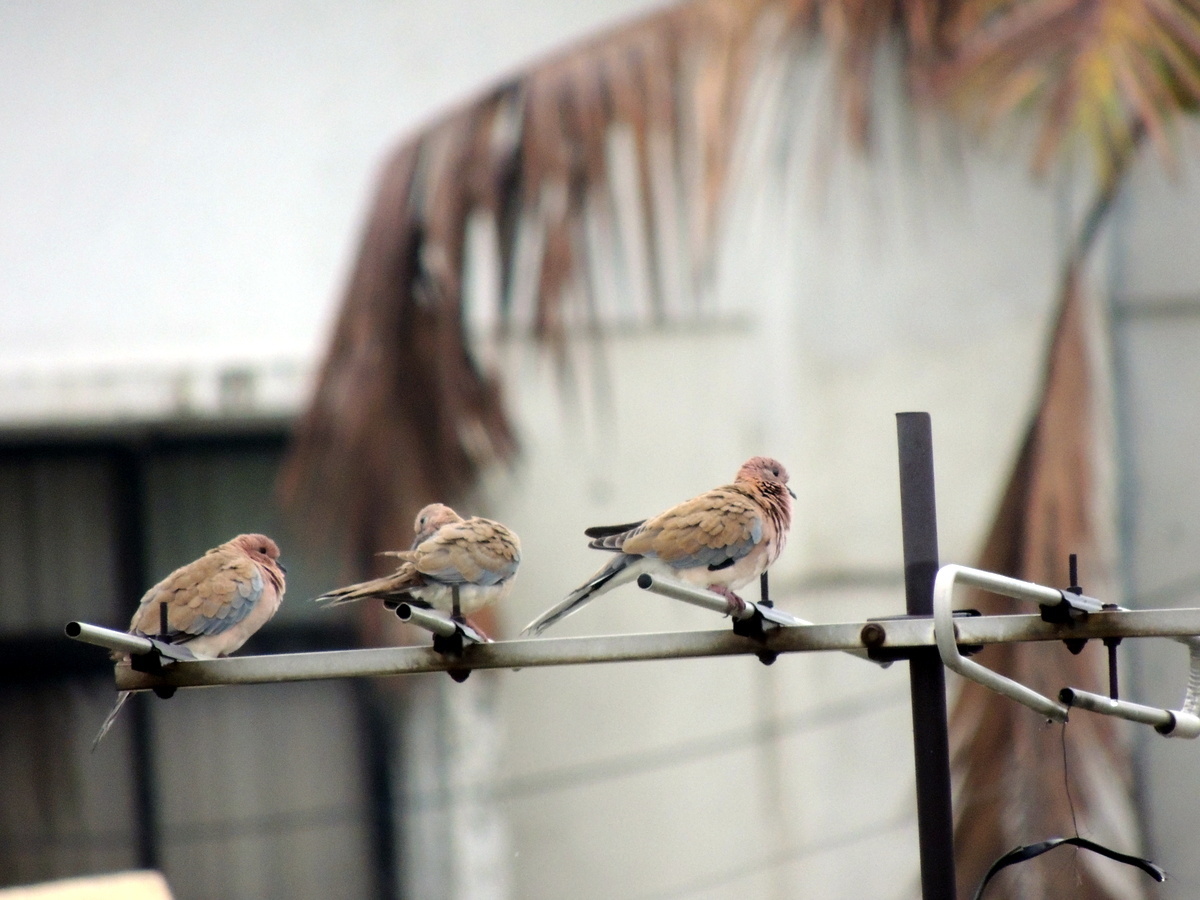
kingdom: Animalia
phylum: Chordata
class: Aves
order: Columbiformes
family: Columbidae
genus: Spilopelia
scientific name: Spilopelia senegalensis
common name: Laughing dove
